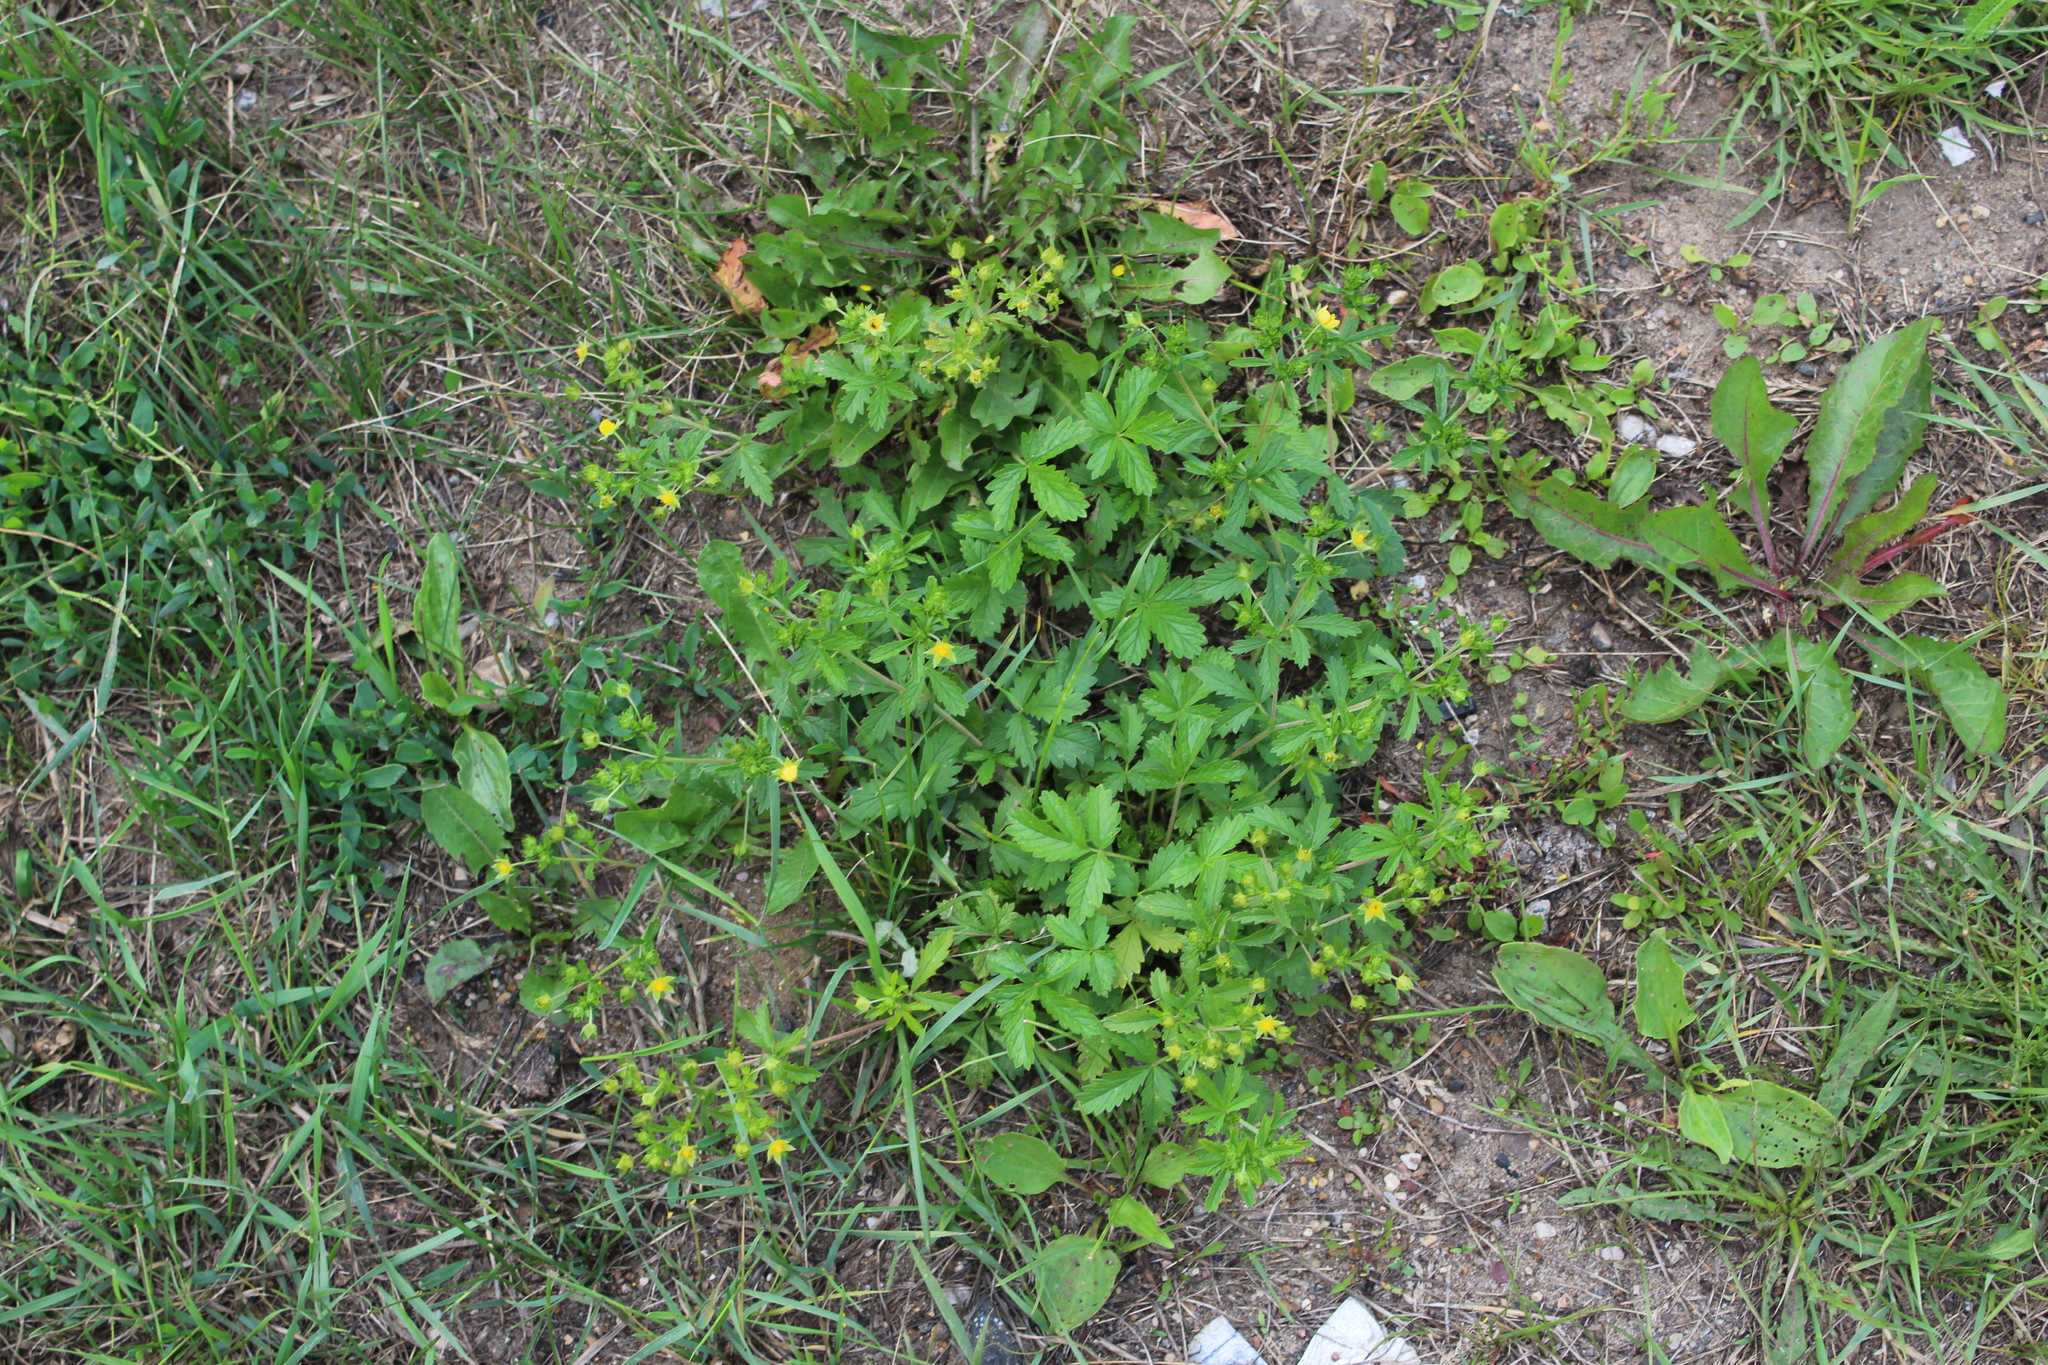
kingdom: Plantae
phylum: Tracheophyta
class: Magnoliopsida
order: Rosales
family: Rosaceae
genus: Potentilla
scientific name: Potentilla norvegica
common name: Ternate-leaved cinquefoil
